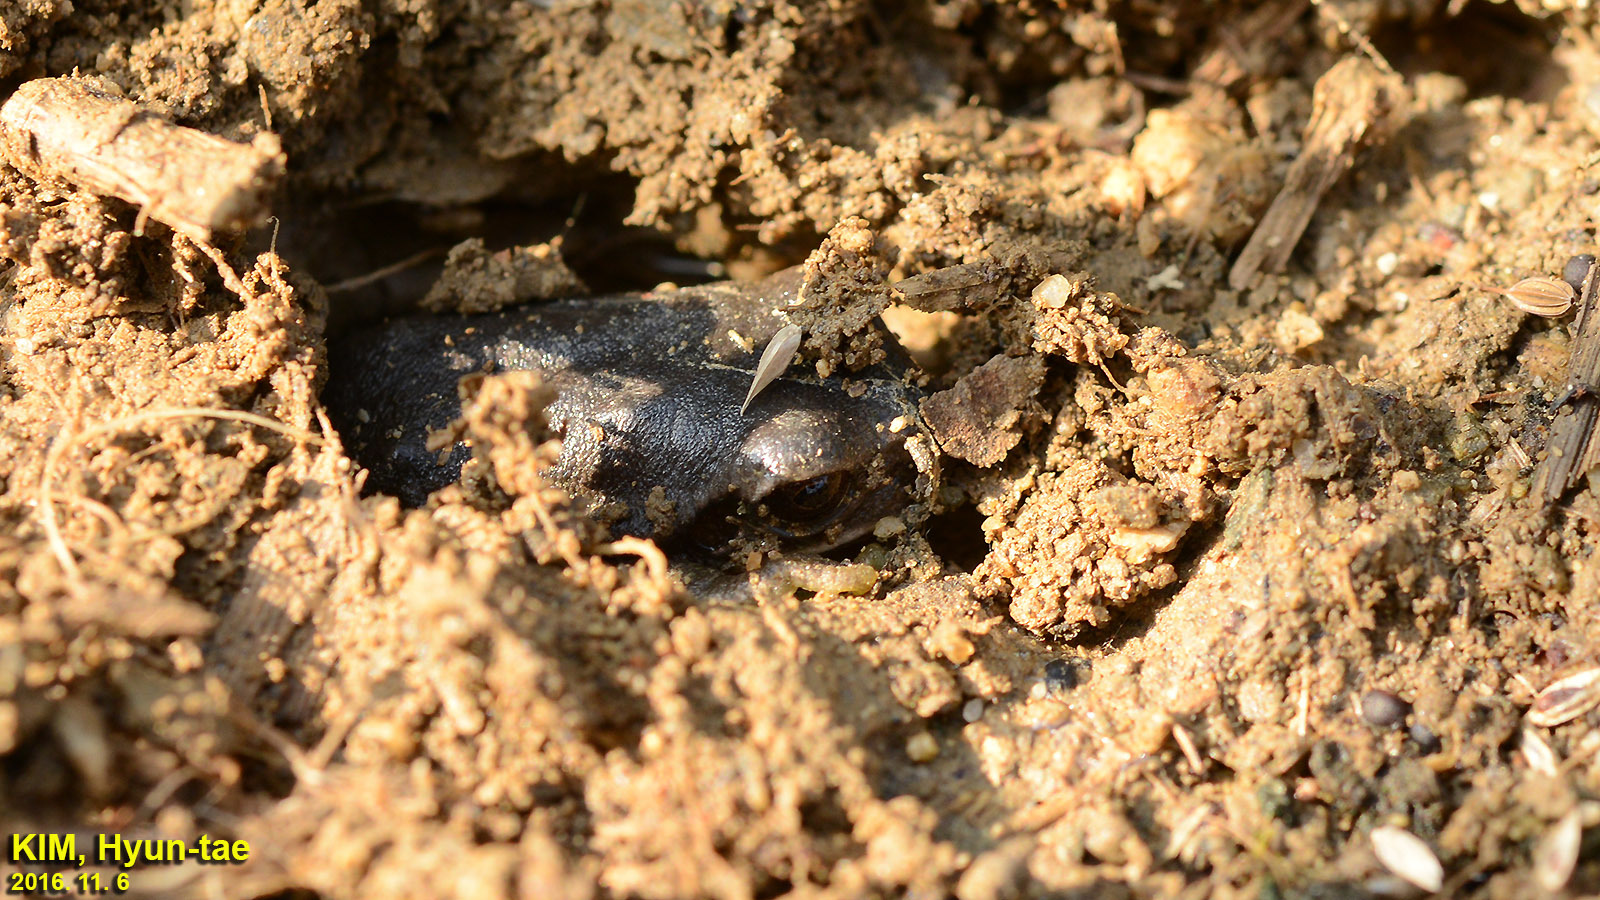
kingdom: Animalia
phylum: Chordata
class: Amphibia
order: Anura
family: Hylidae
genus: Dryophytes
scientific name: Dryophytes immaculatus
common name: North china treefrog
